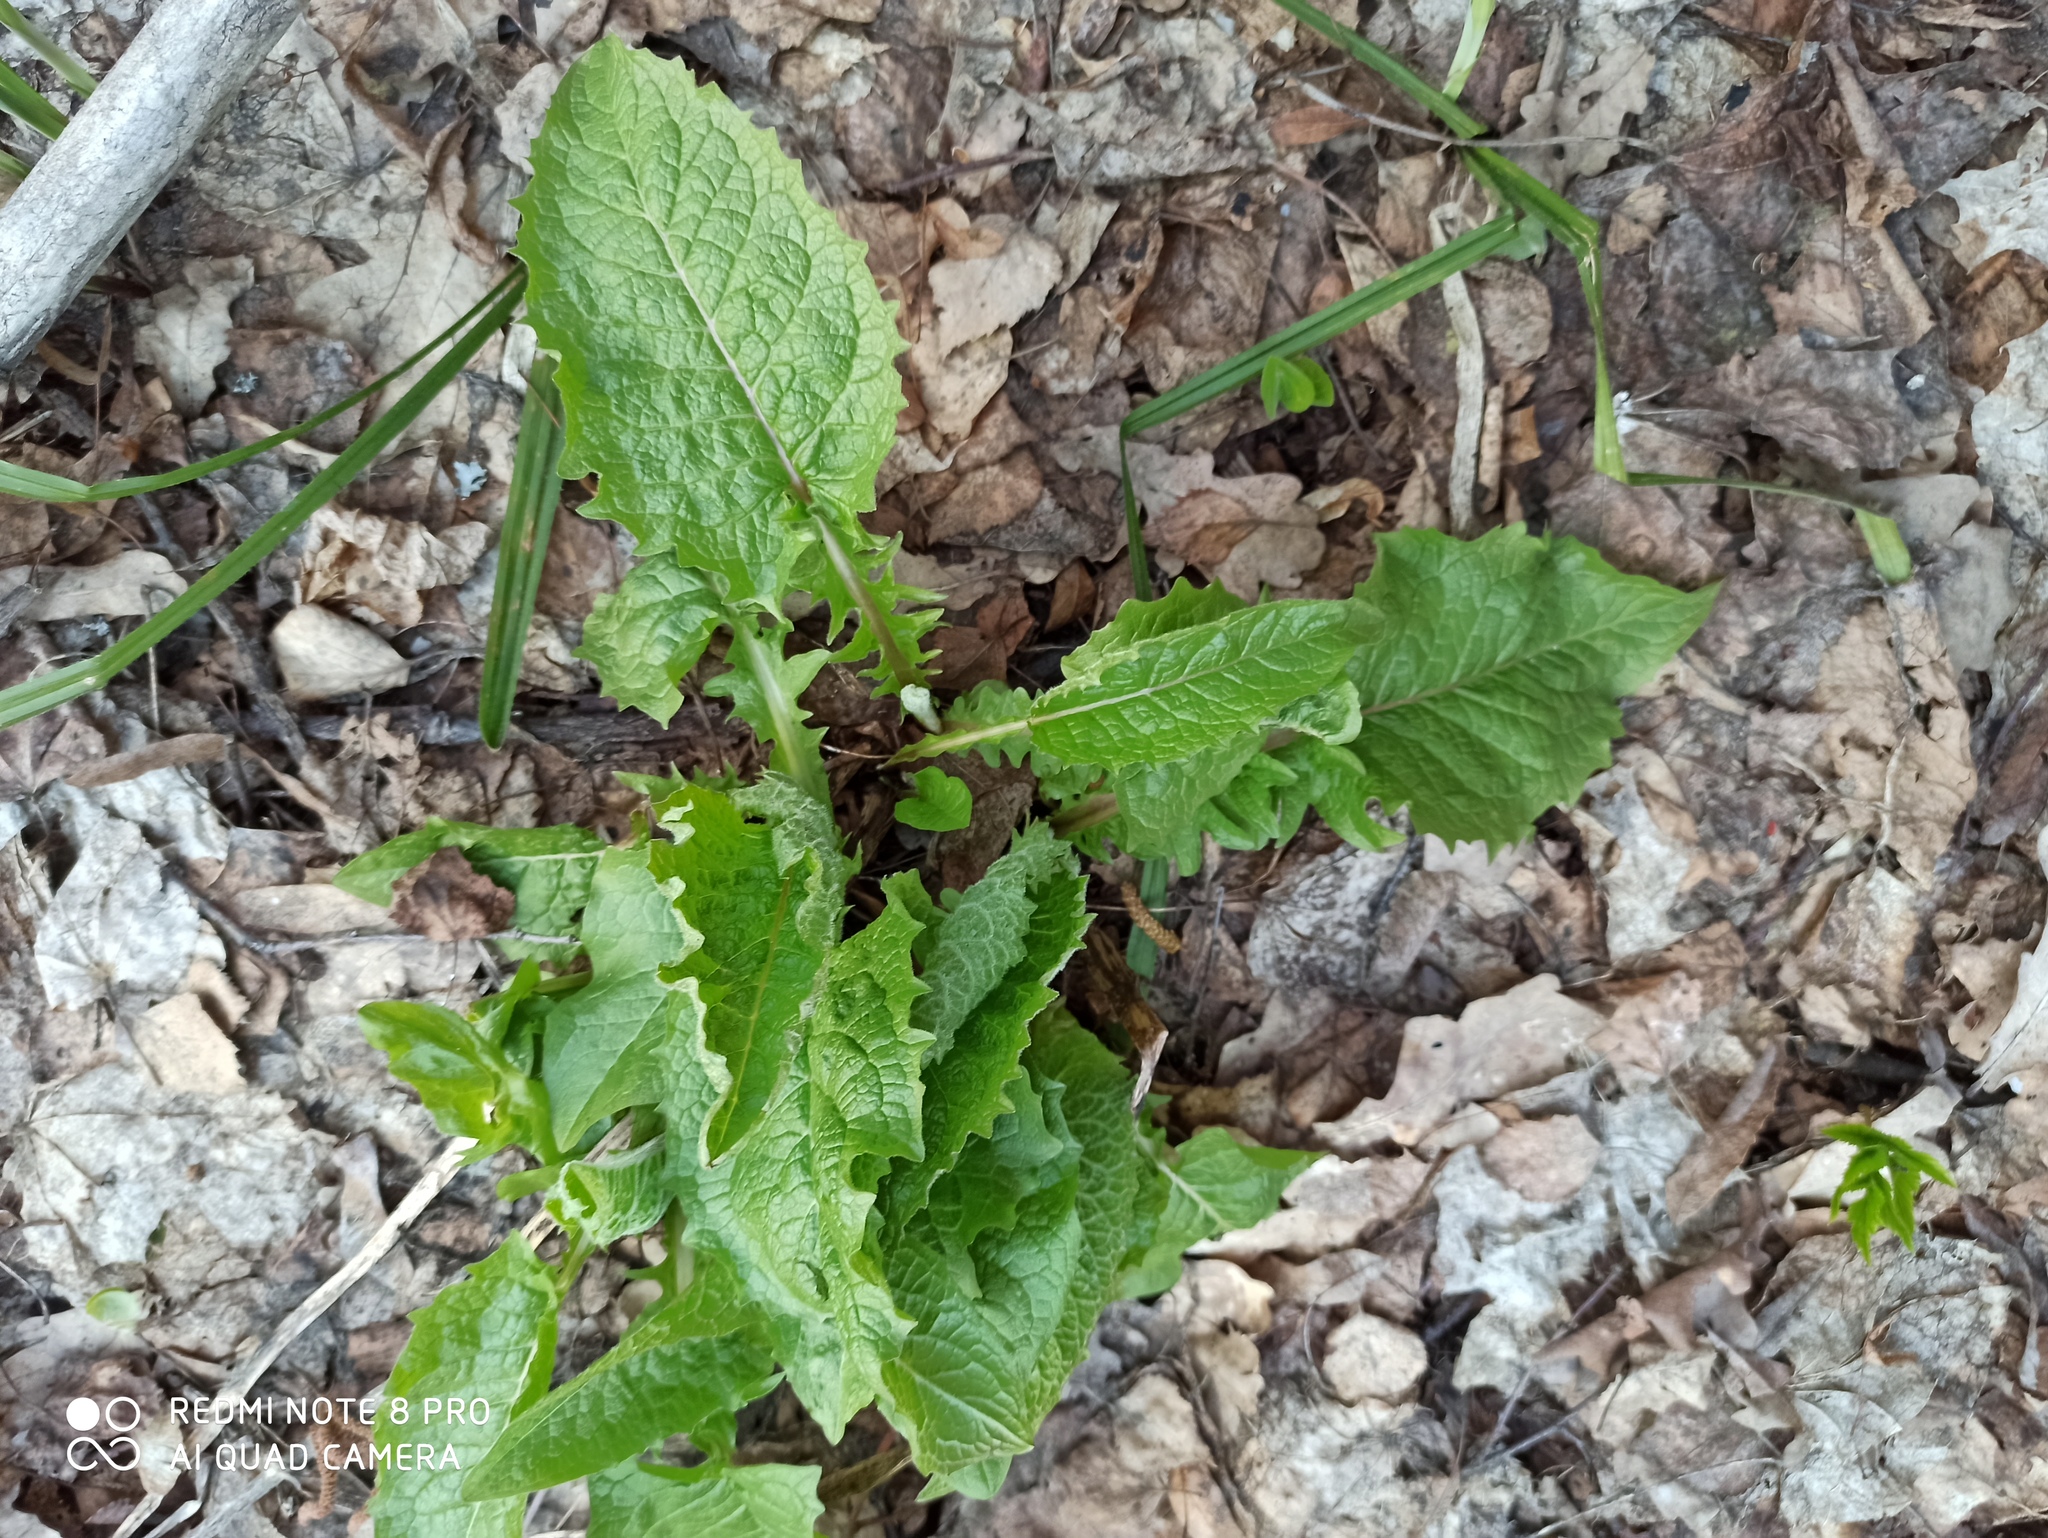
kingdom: Plantae
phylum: Tracheophyta
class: Magnoliopsida
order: Asterales
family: Asteraceae
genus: Crepis
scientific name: Crepis sibirica
